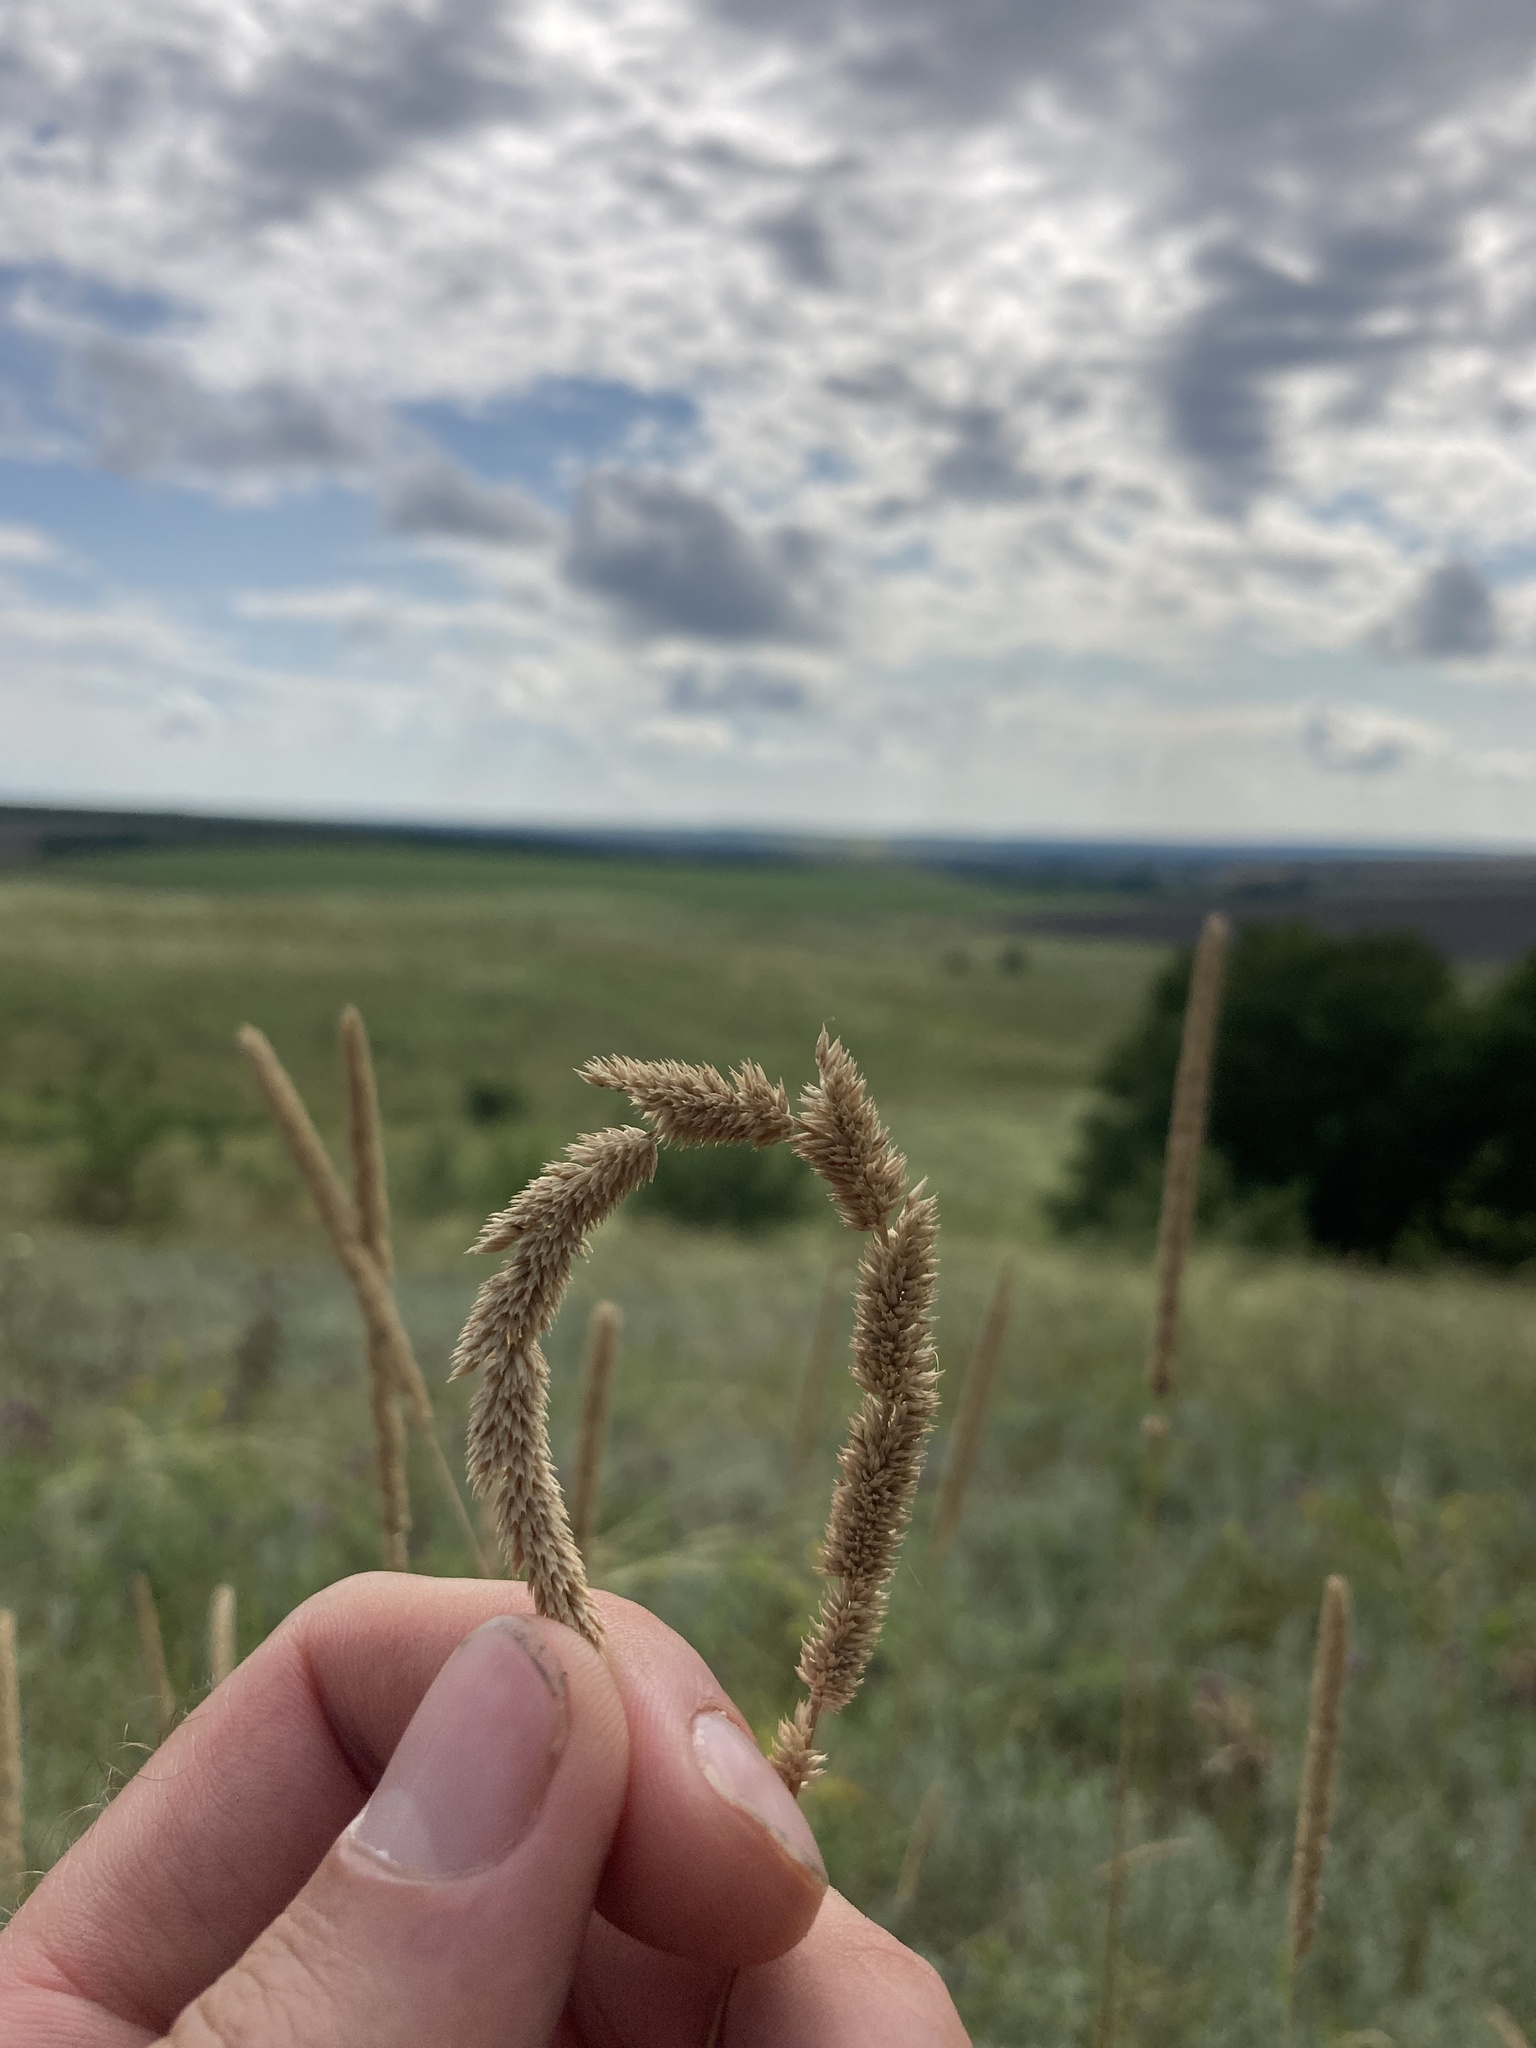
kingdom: Plantae
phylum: Tracheophyta
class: Liliopsida
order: Poales
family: Poaceae
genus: Phleum
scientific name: Phleum phleoides
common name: Purple-stem cat's-tail
